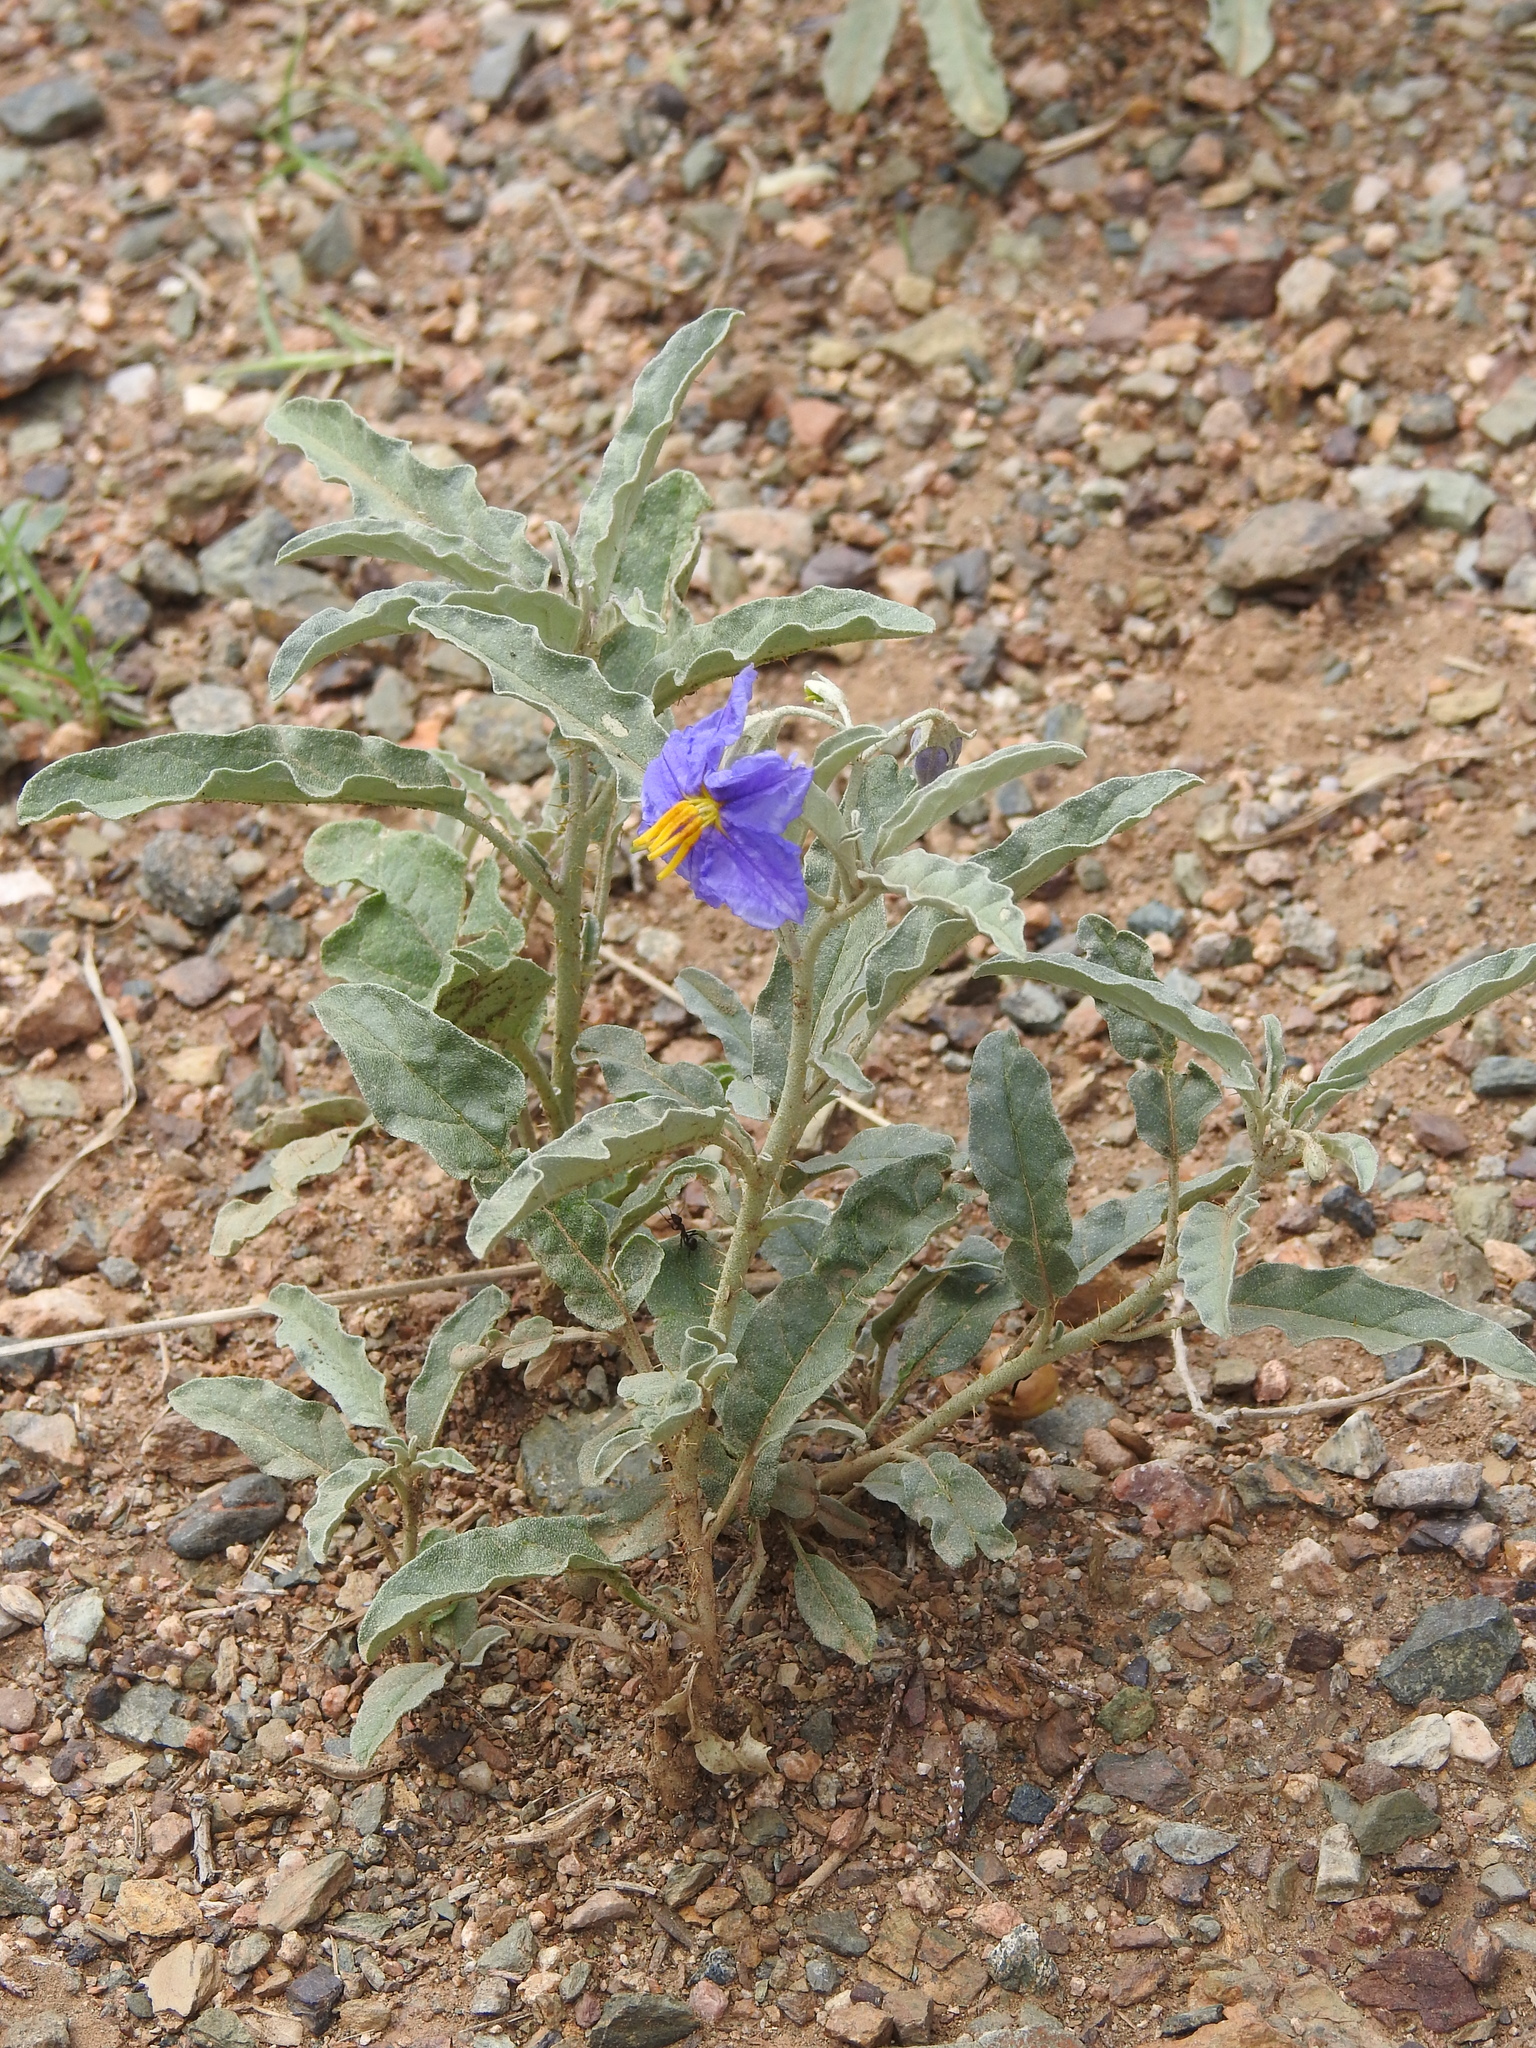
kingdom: Plantae
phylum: Tracheophyta
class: Magnoliopsida
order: Solanales
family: Solanaceae
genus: Solanum
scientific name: Solanum elaeagnifolium
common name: Silverleaf nightshade
